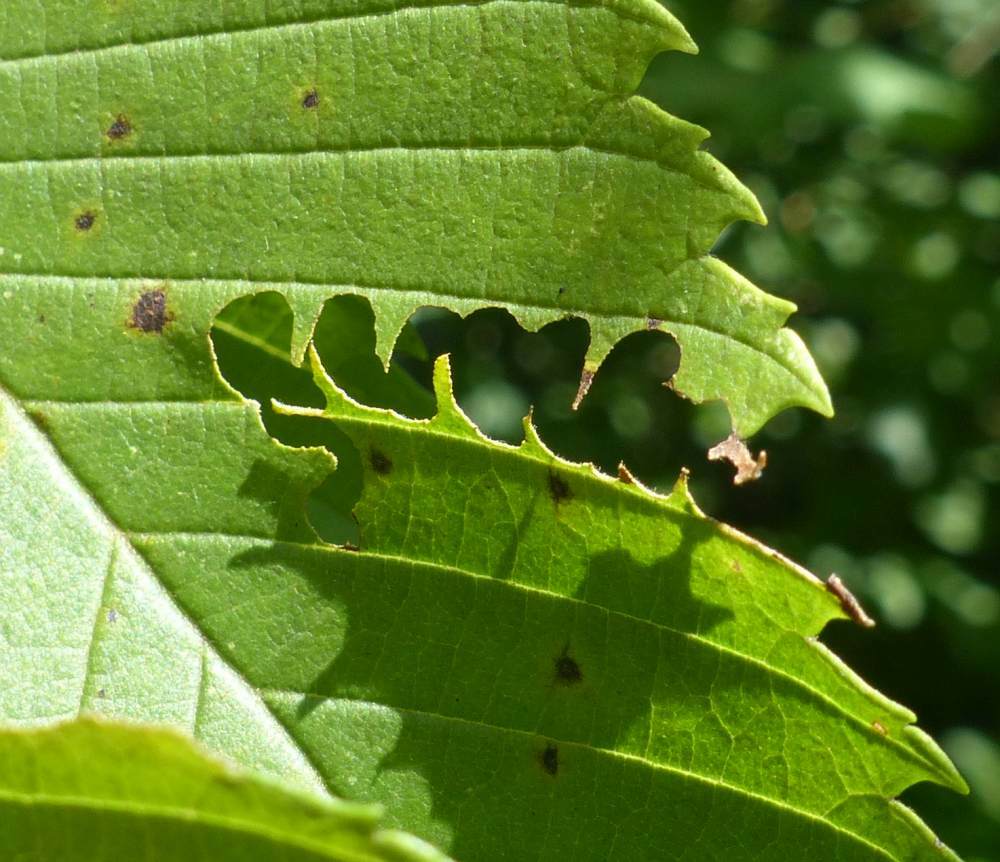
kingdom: Animalia
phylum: Arthropoda
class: Insecta
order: Hymenoptera
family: Argidae
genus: Aproceros
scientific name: Aproceros leucopoda
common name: Zig-zag elm sawfly
